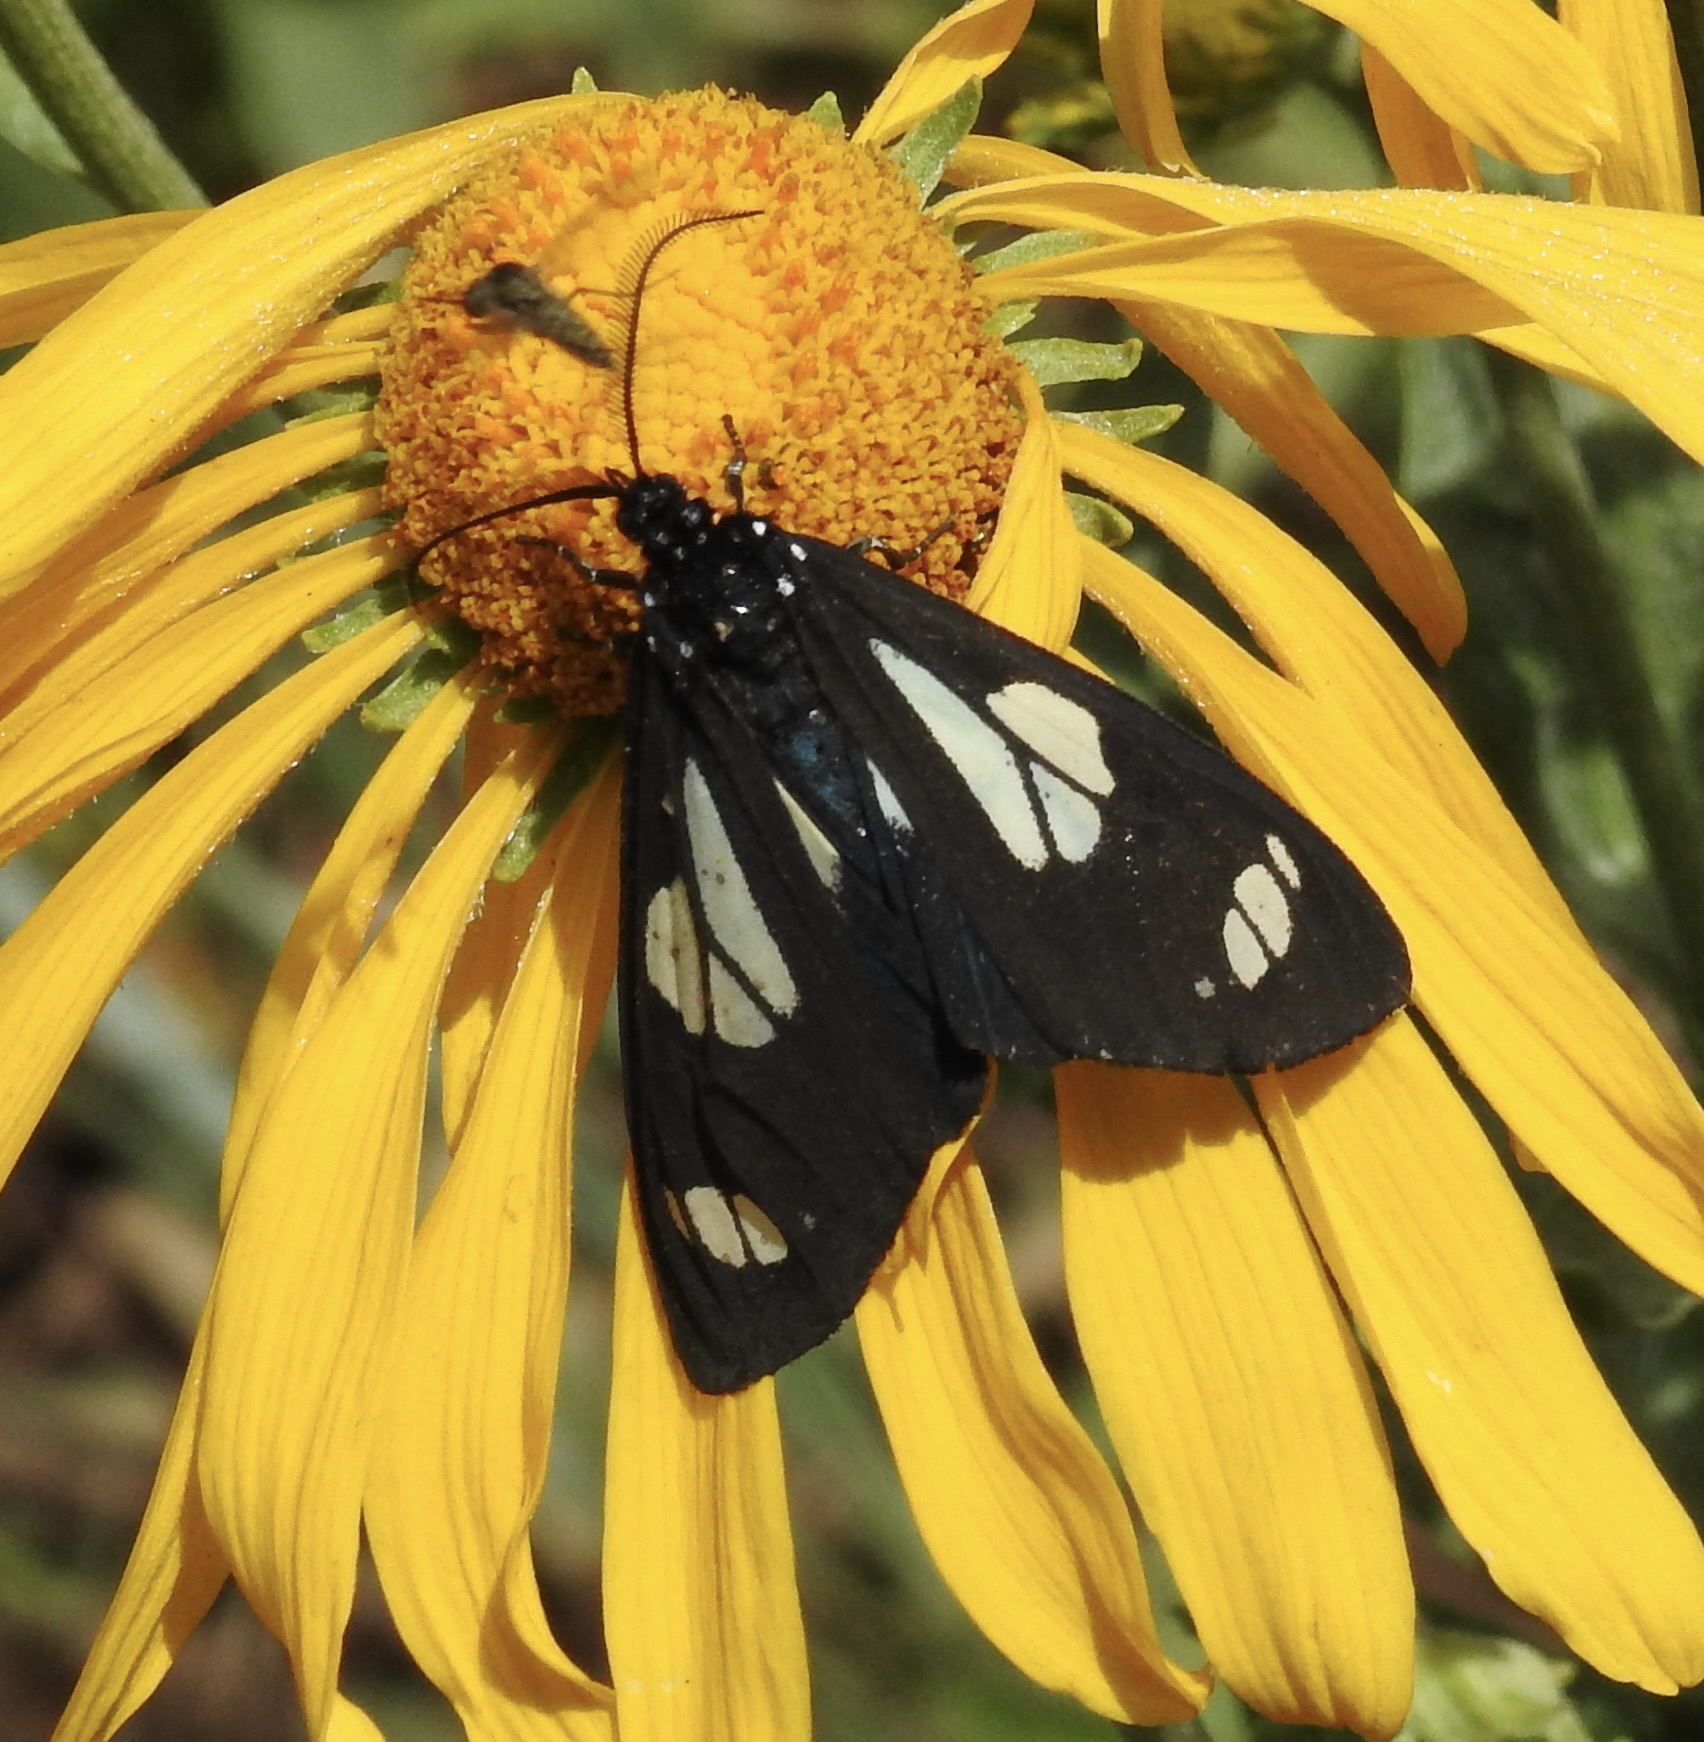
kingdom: Animalia
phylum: Arthropoda
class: Insecta
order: Lepidoptera
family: Erebidae
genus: Gnophaela
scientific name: Gnophaela discreta
